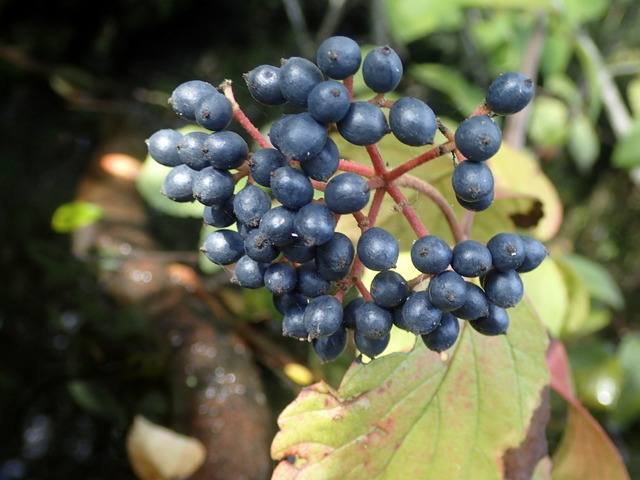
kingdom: Plantae
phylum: Tracheophyta
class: Magnoliopsida
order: Dipsacales
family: Viburnaceae
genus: Viburnum
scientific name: Viburnum scabrellum
